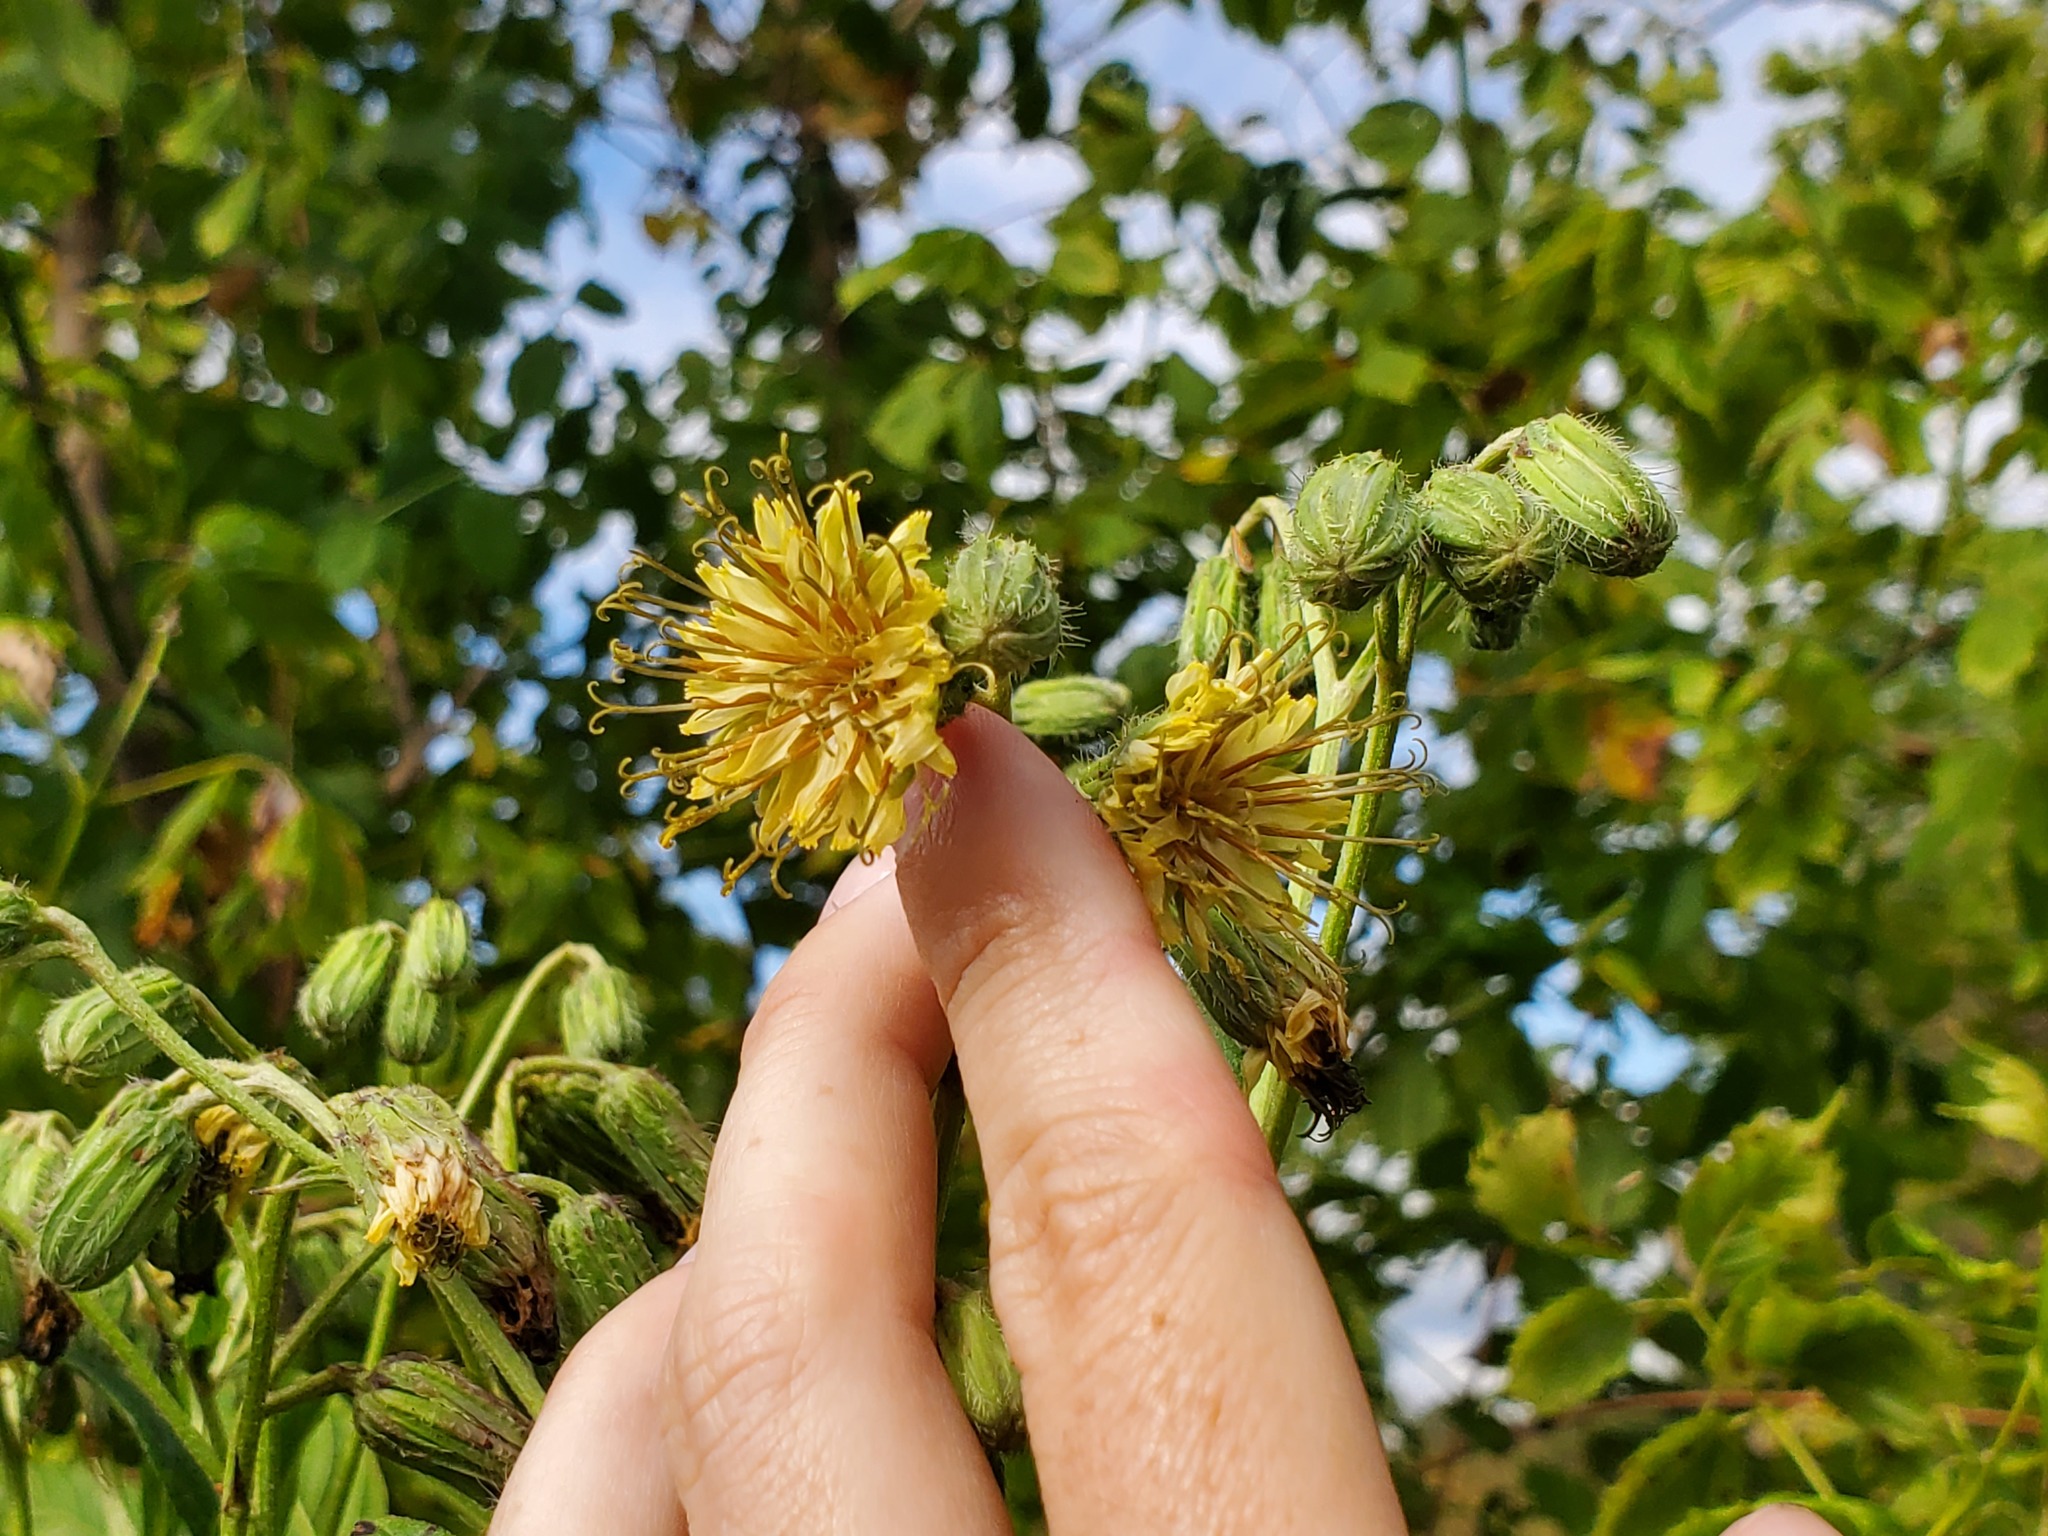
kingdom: Plantae
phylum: Tracheophyta
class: Magnoliopsida
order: Asterales
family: Asteraceae
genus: Nabalus
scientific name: Nabalus crepidineus
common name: Nodding rattlesnakeroot
